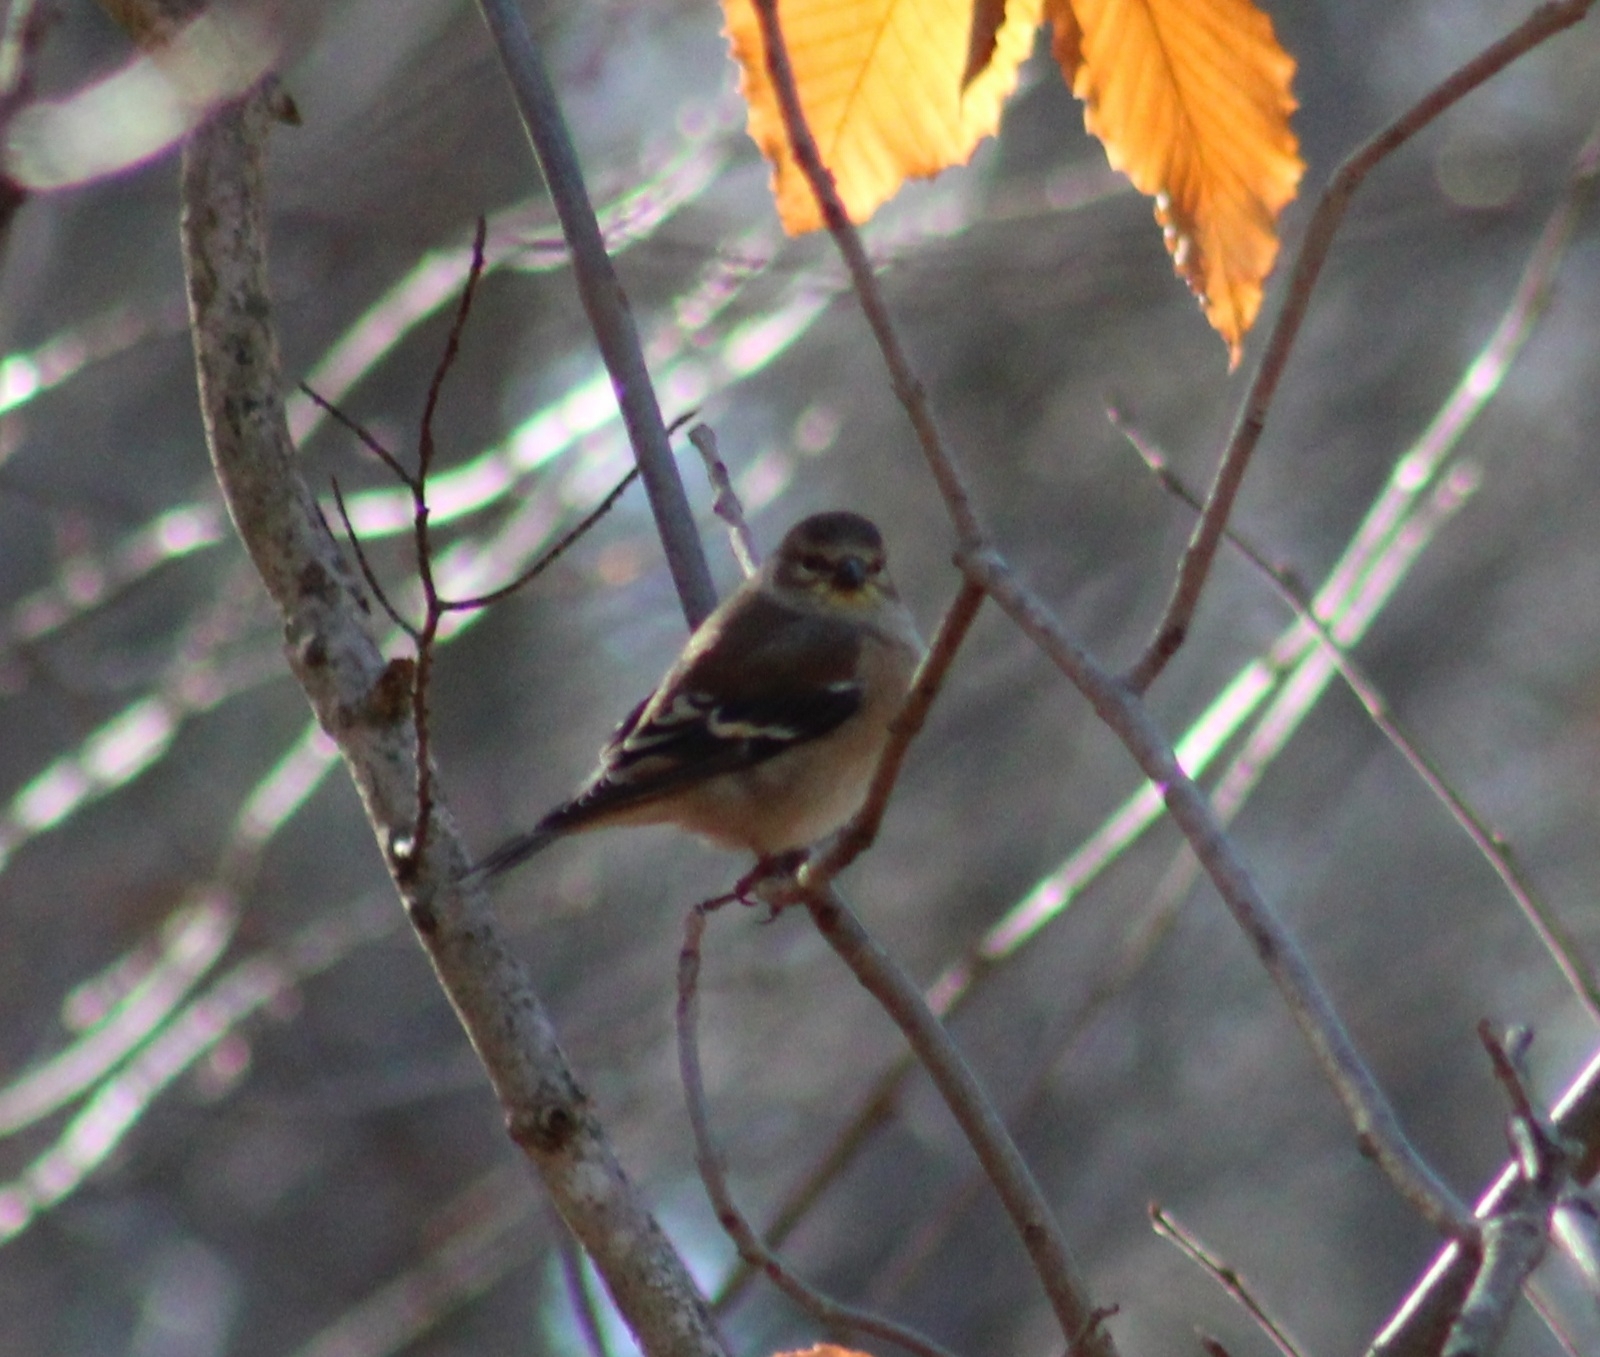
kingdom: Animalia
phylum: Chordata
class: Aves
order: Passeriformes
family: Fringillidae
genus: Spinus
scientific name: Spinus tristis
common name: American goldfinch
